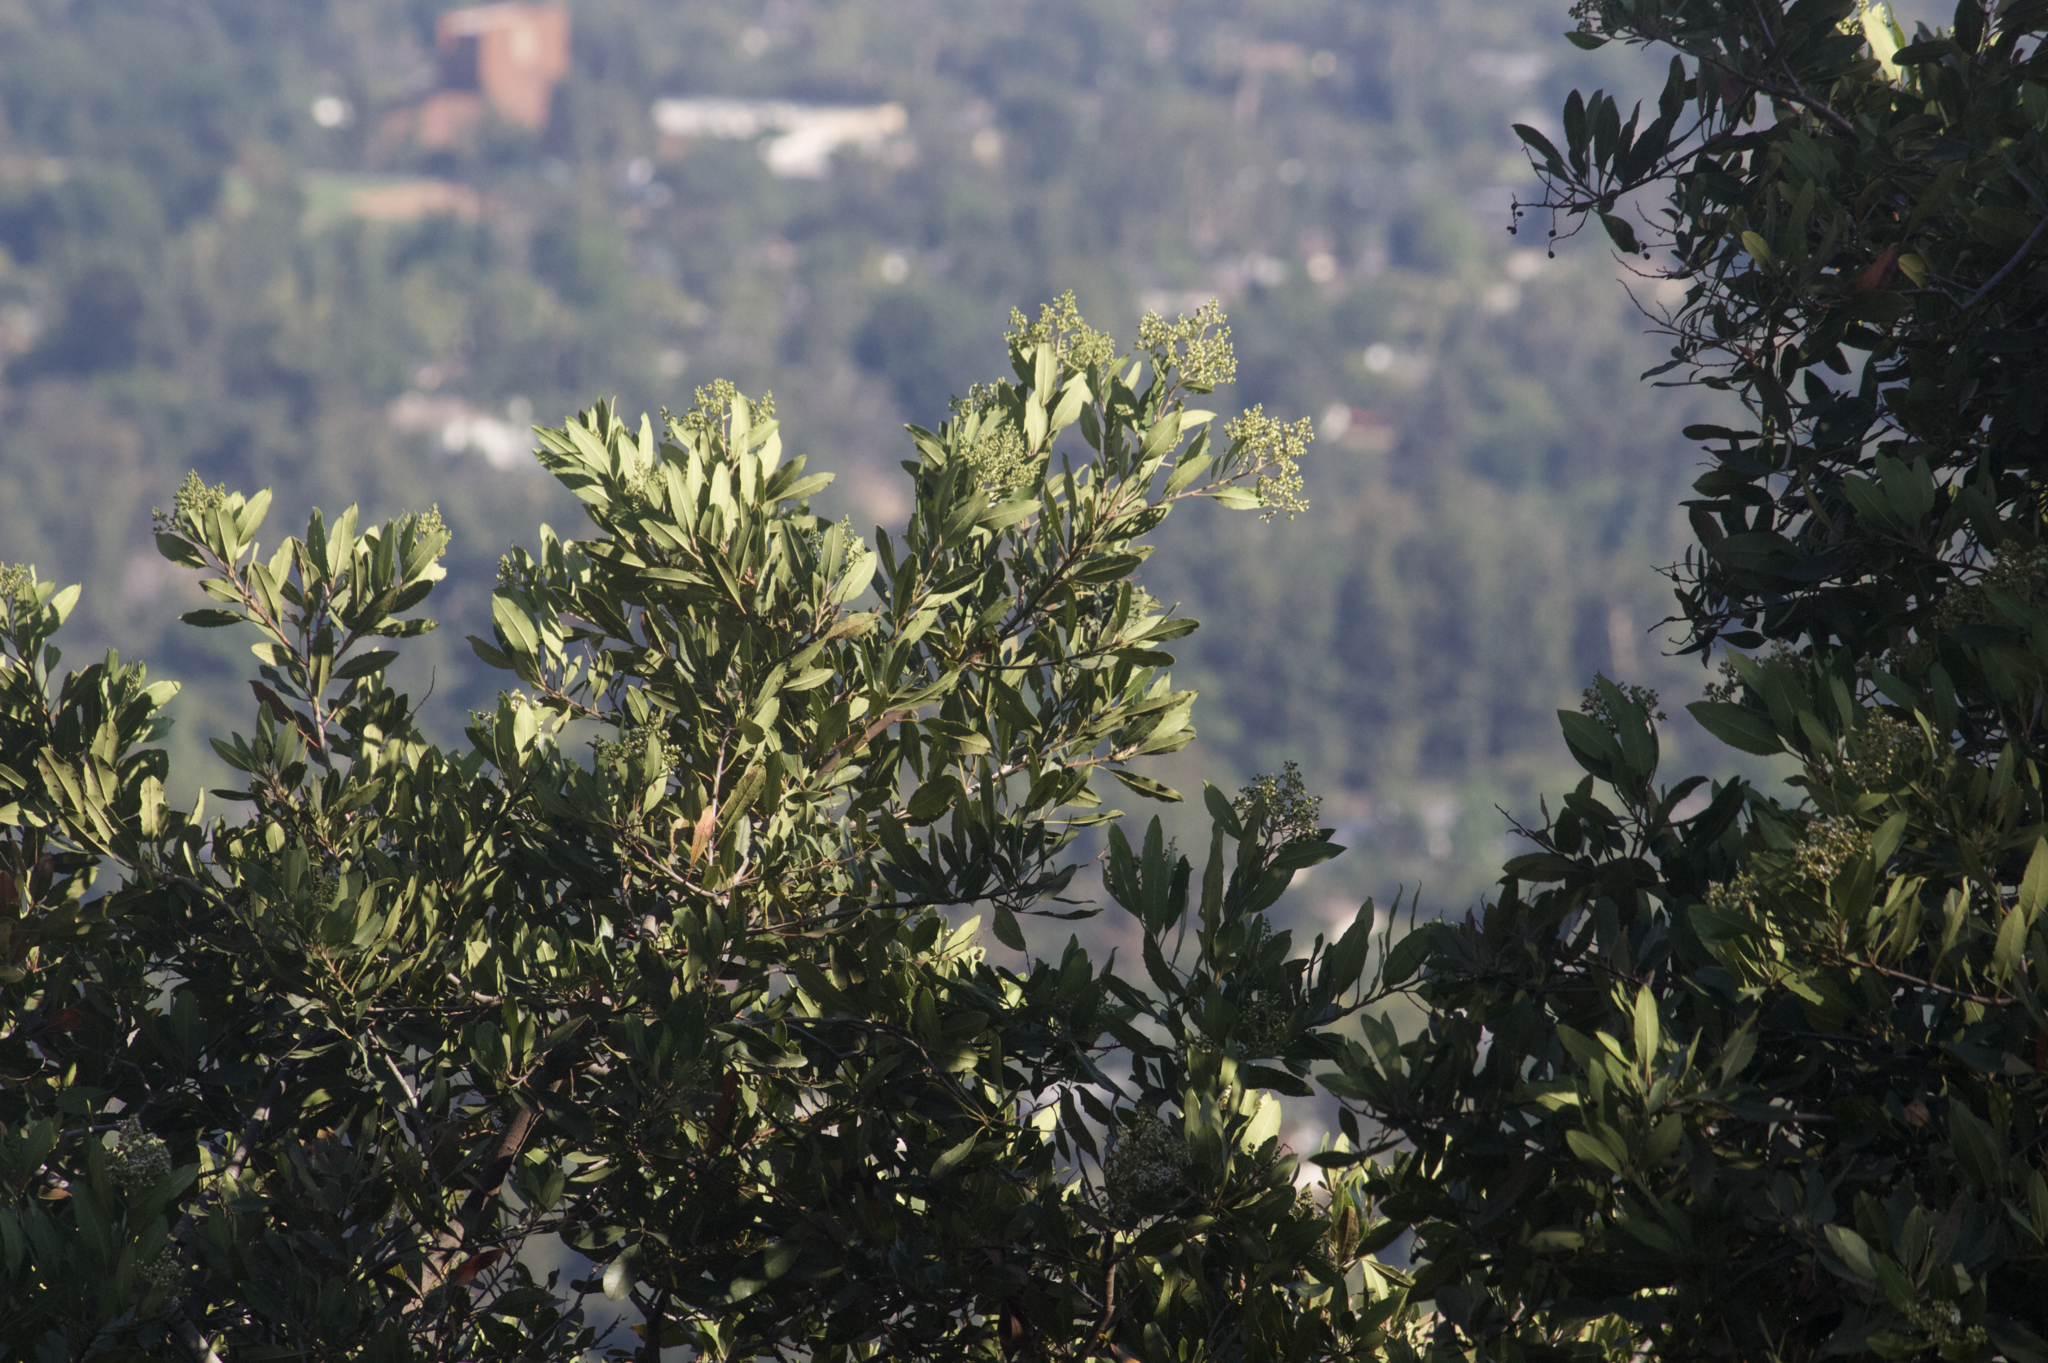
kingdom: Plantae
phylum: Tracheophyta
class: Magnoliopsida
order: Rosales
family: Rosaceae
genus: Heteromeles
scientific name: Heteromeles arbutifolia
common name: California-holly
